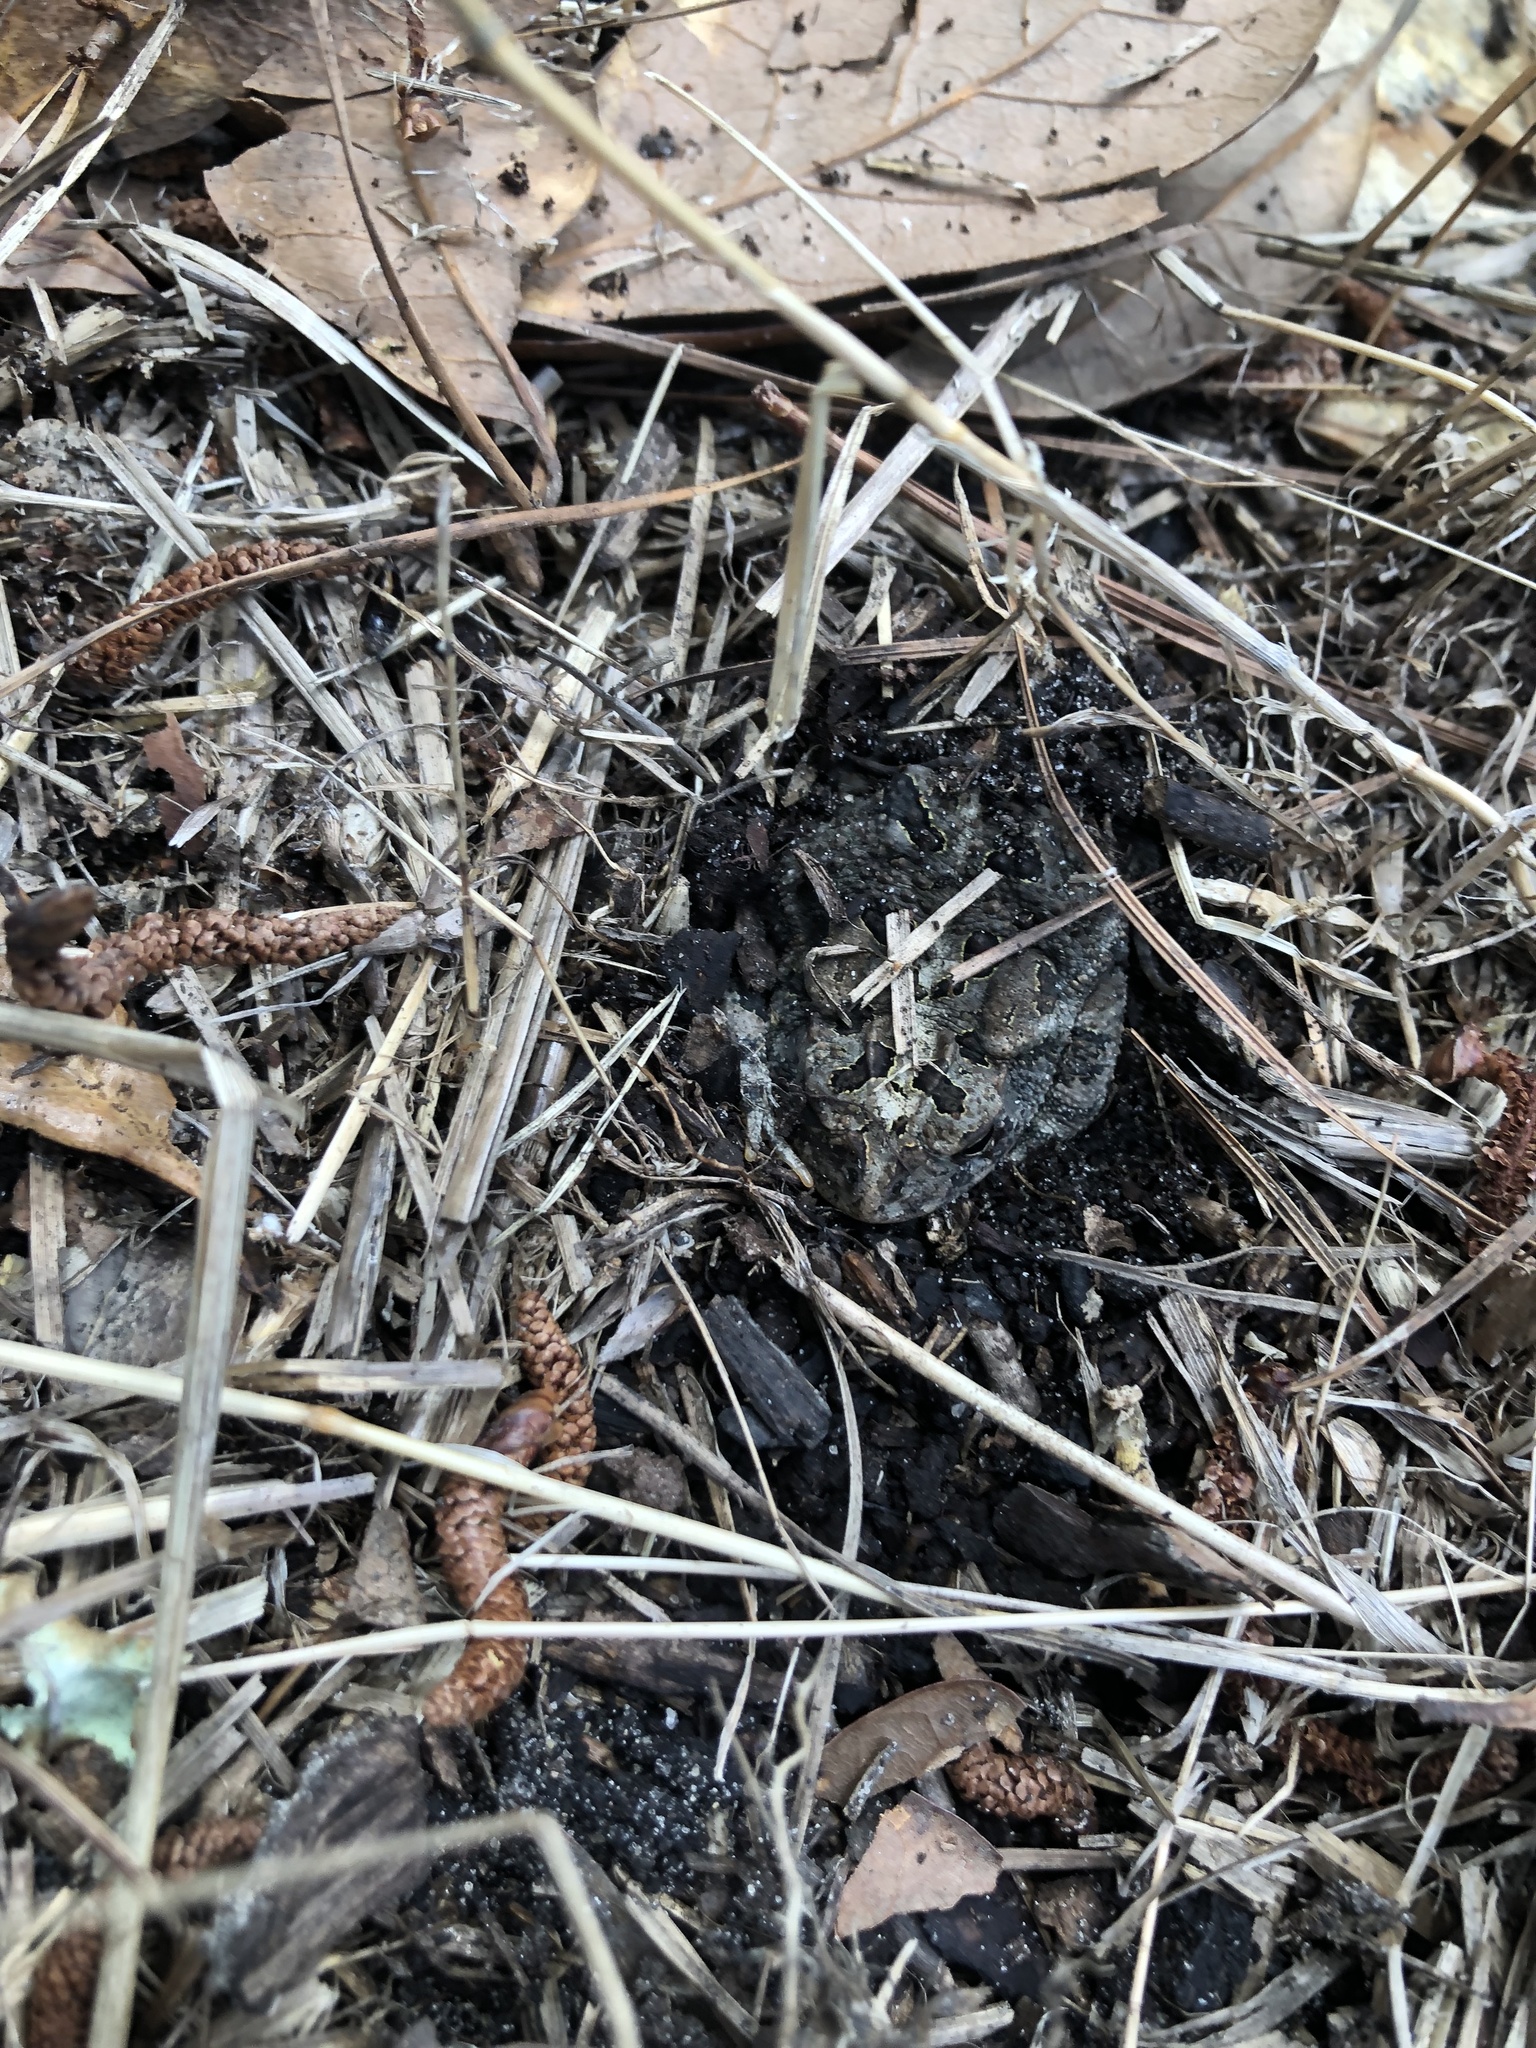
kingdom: Animalia
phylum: Chordata
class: Amphibia
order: Anura
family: Bufonidae
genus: Anaxyrus
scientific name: Anaxyrus terrestris
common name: Southern toad
